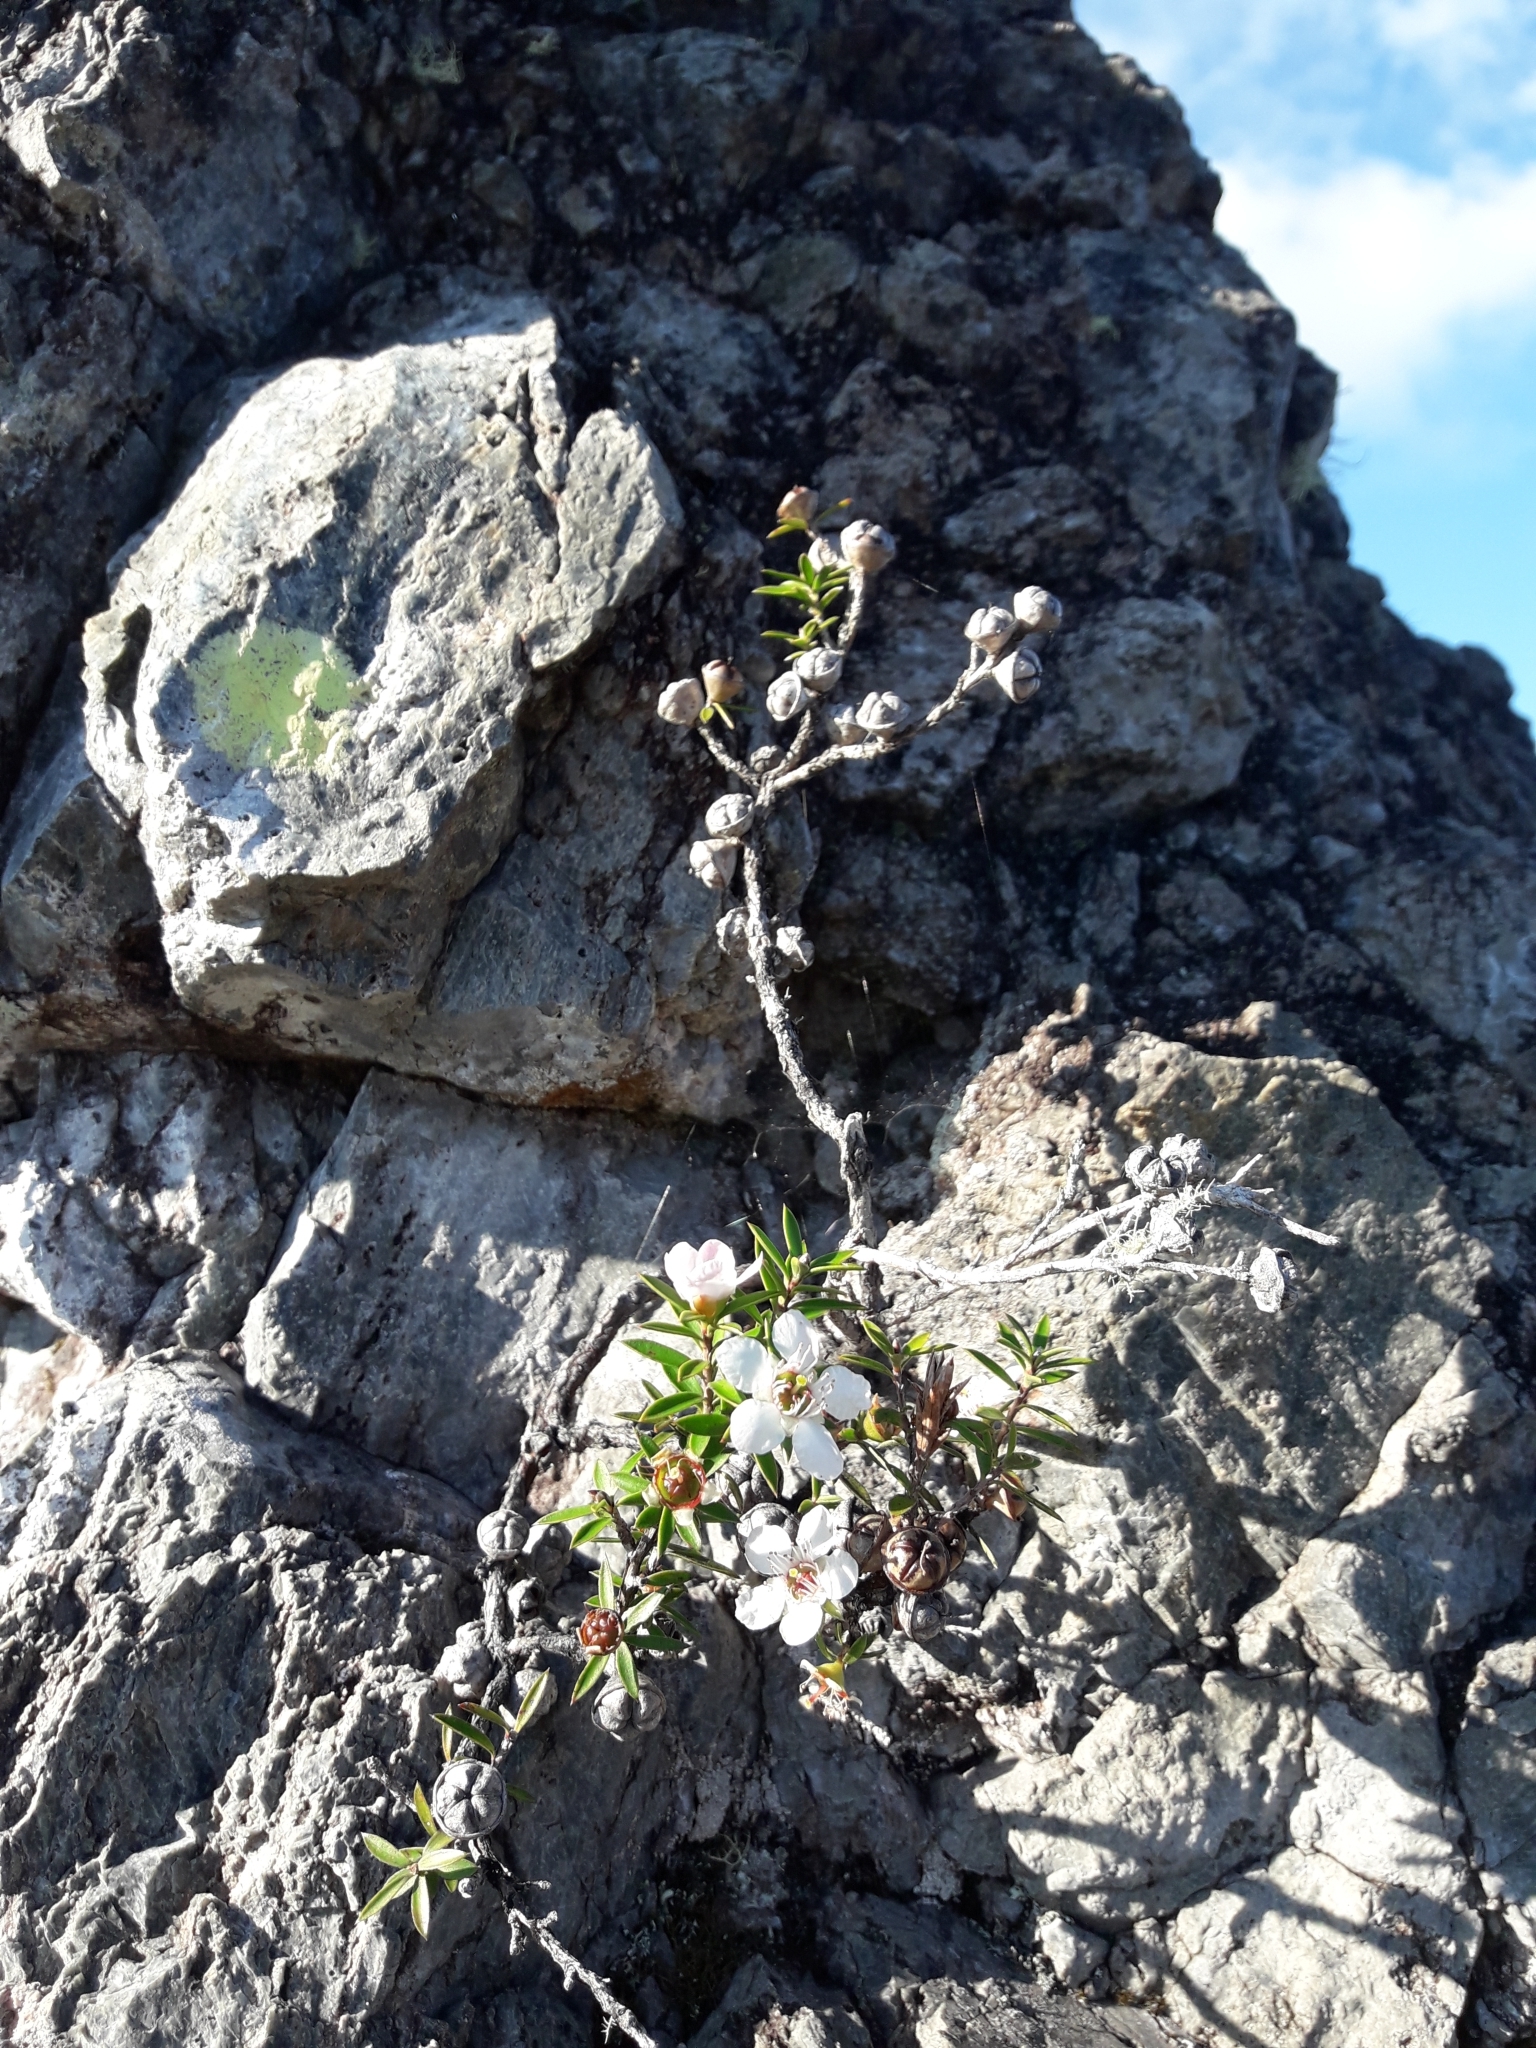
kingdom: Plantae
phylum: Tracheophyta
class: Magnoliopsida
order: Myrtales
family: Myrtaceae
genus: Leptospermum
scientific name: Leptospermum scoparium
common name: Broom tea-tree
